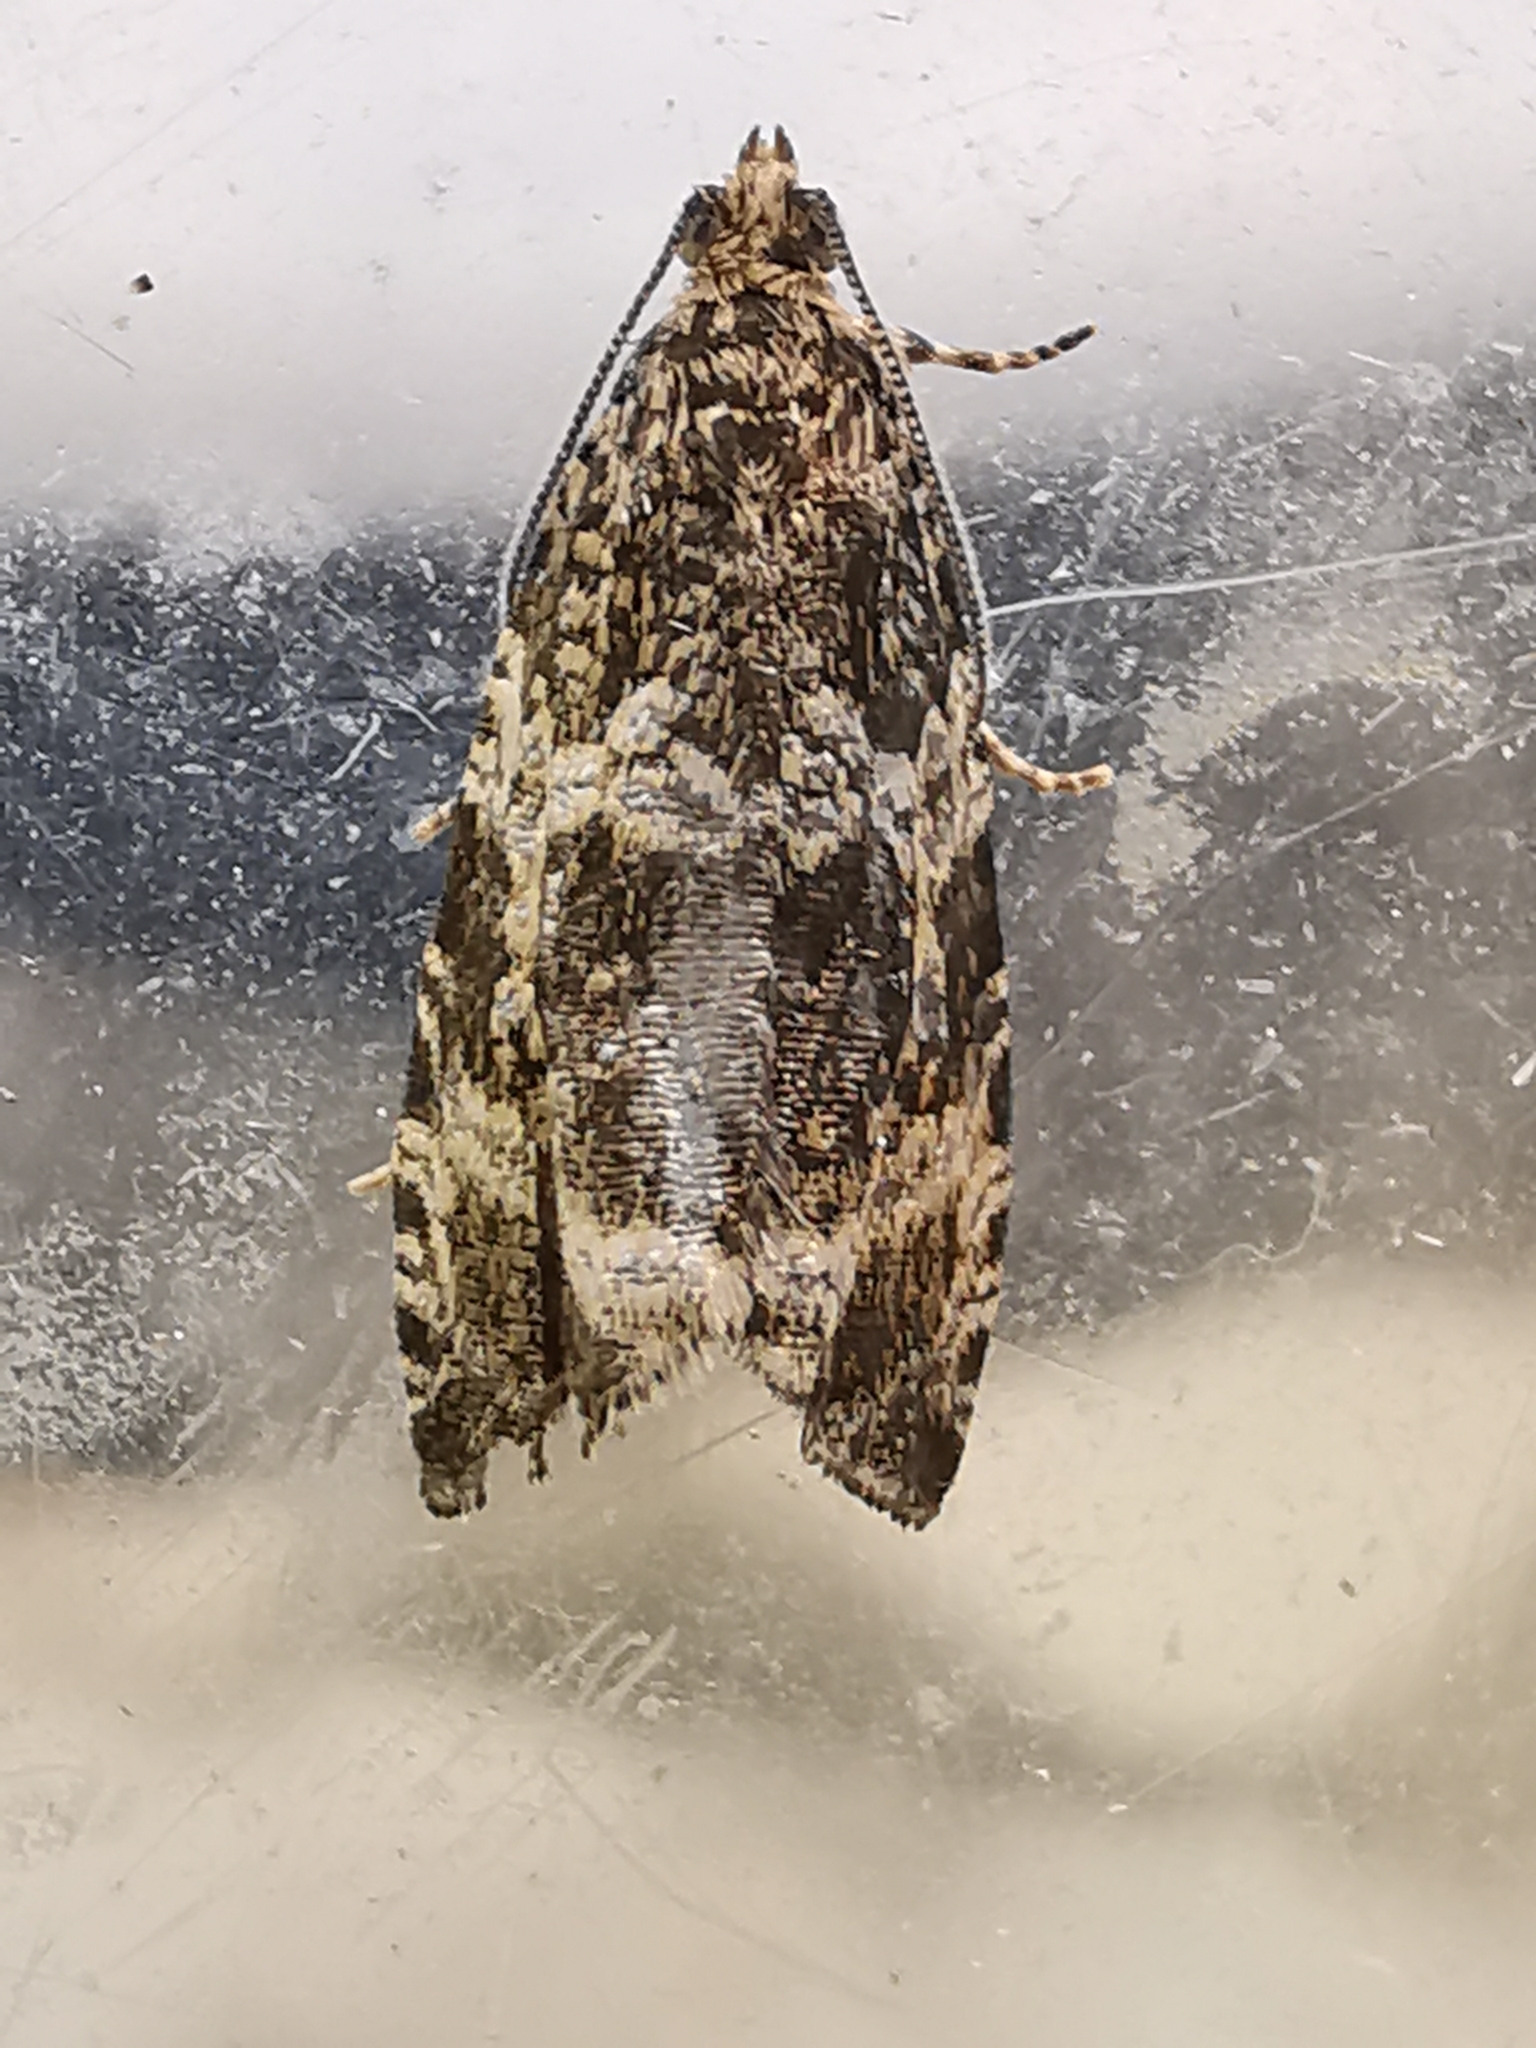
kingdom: Animalia
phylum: Arthropoda
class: Insecta
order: Lepidoptera
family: Tortricidae
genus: Syricoris
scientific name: Syricoris lacunana
